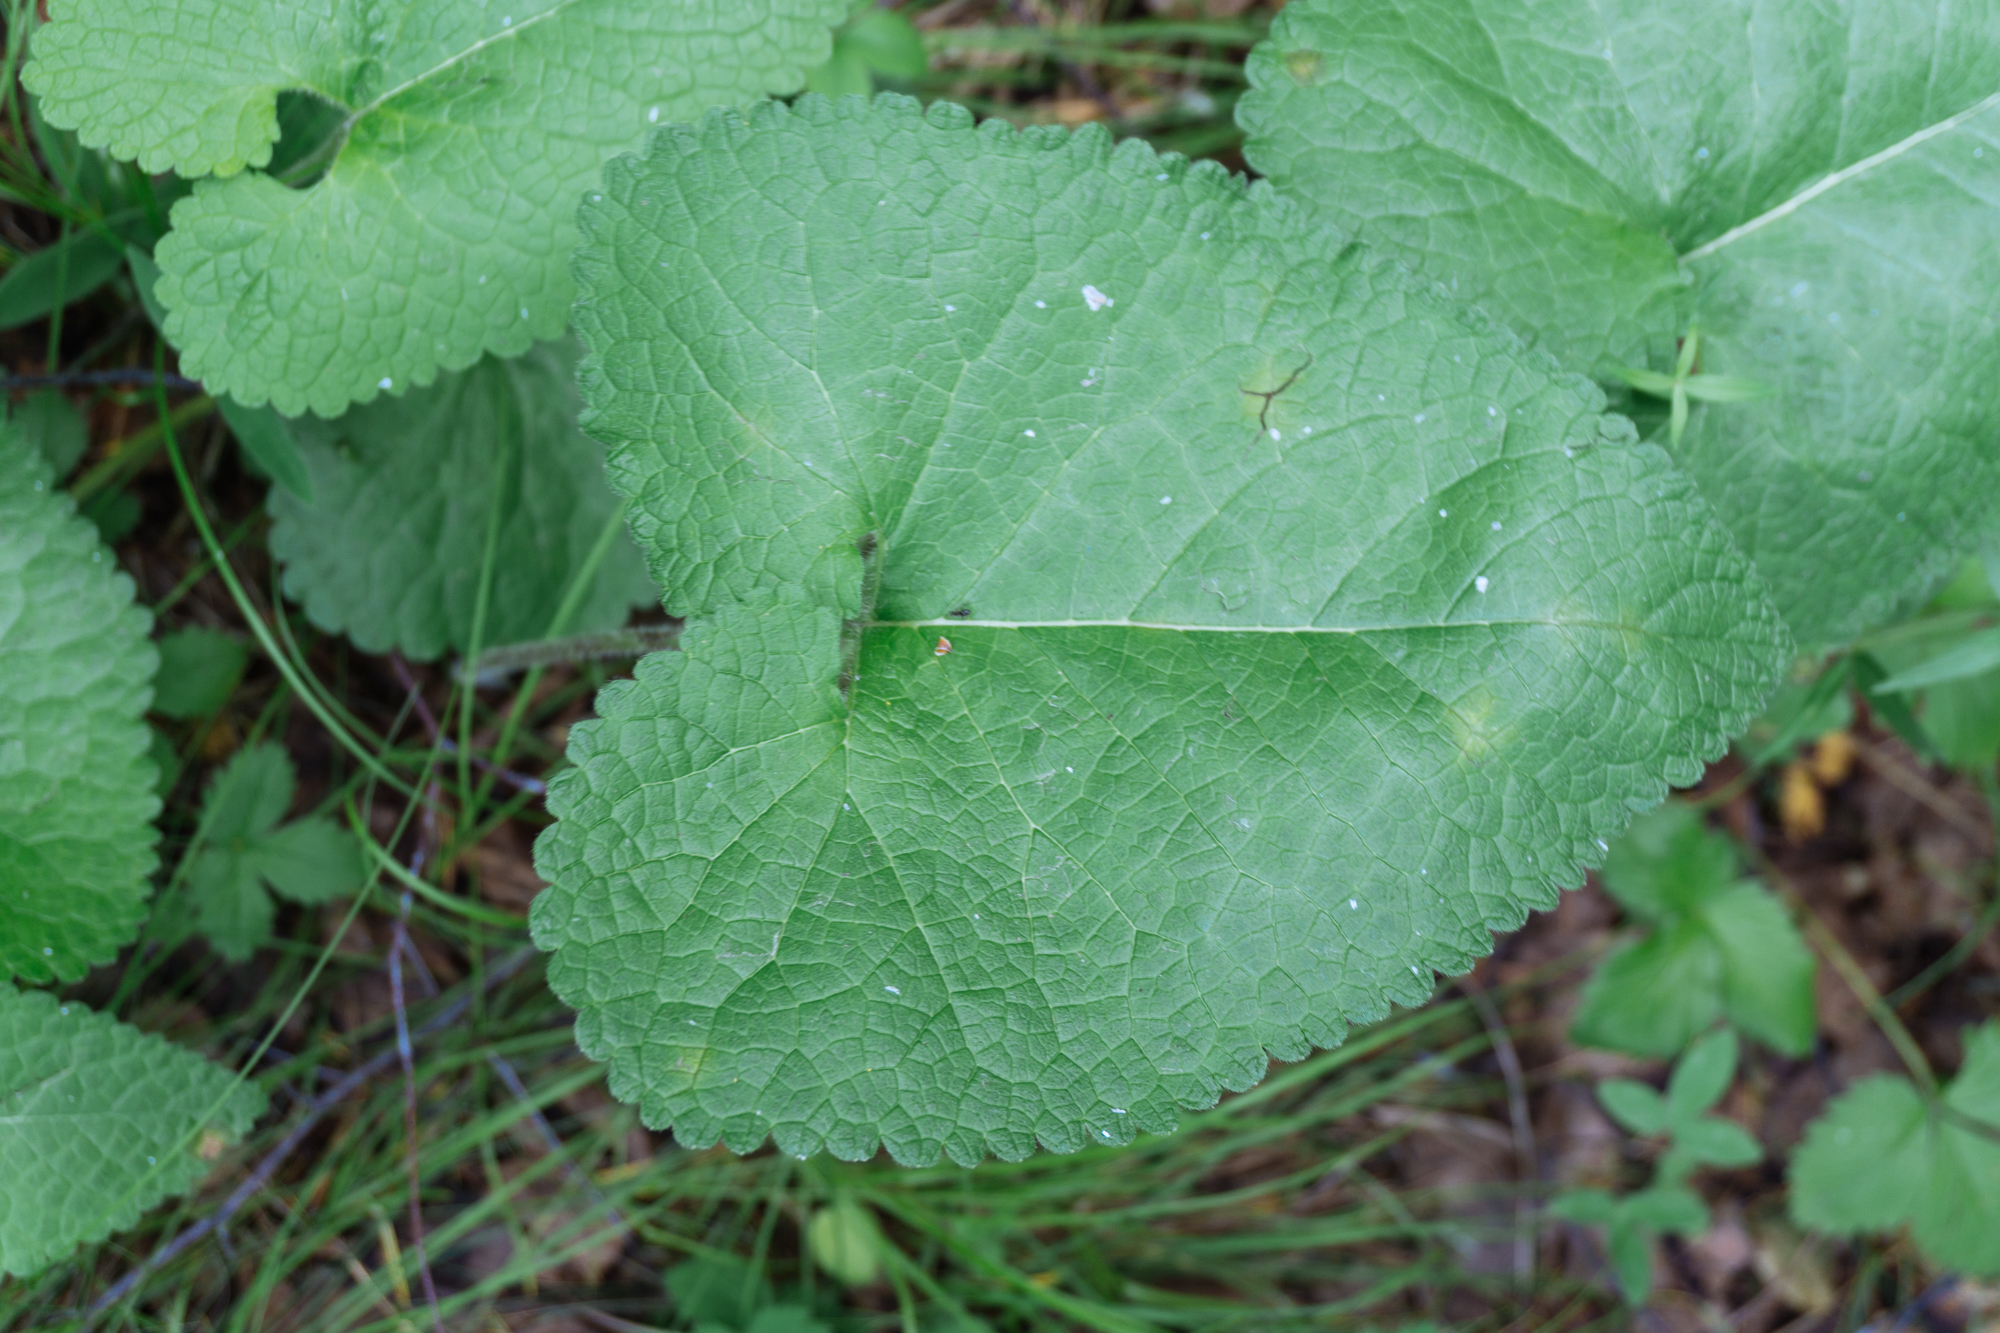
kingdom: Plantae
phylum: Tracheophyta
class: Magnoliopsida
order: Lamiales
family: Lamiaceae
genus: Phlomoides
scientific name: Phlomoides tuberosa
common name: Tuberous jerusalem sage
